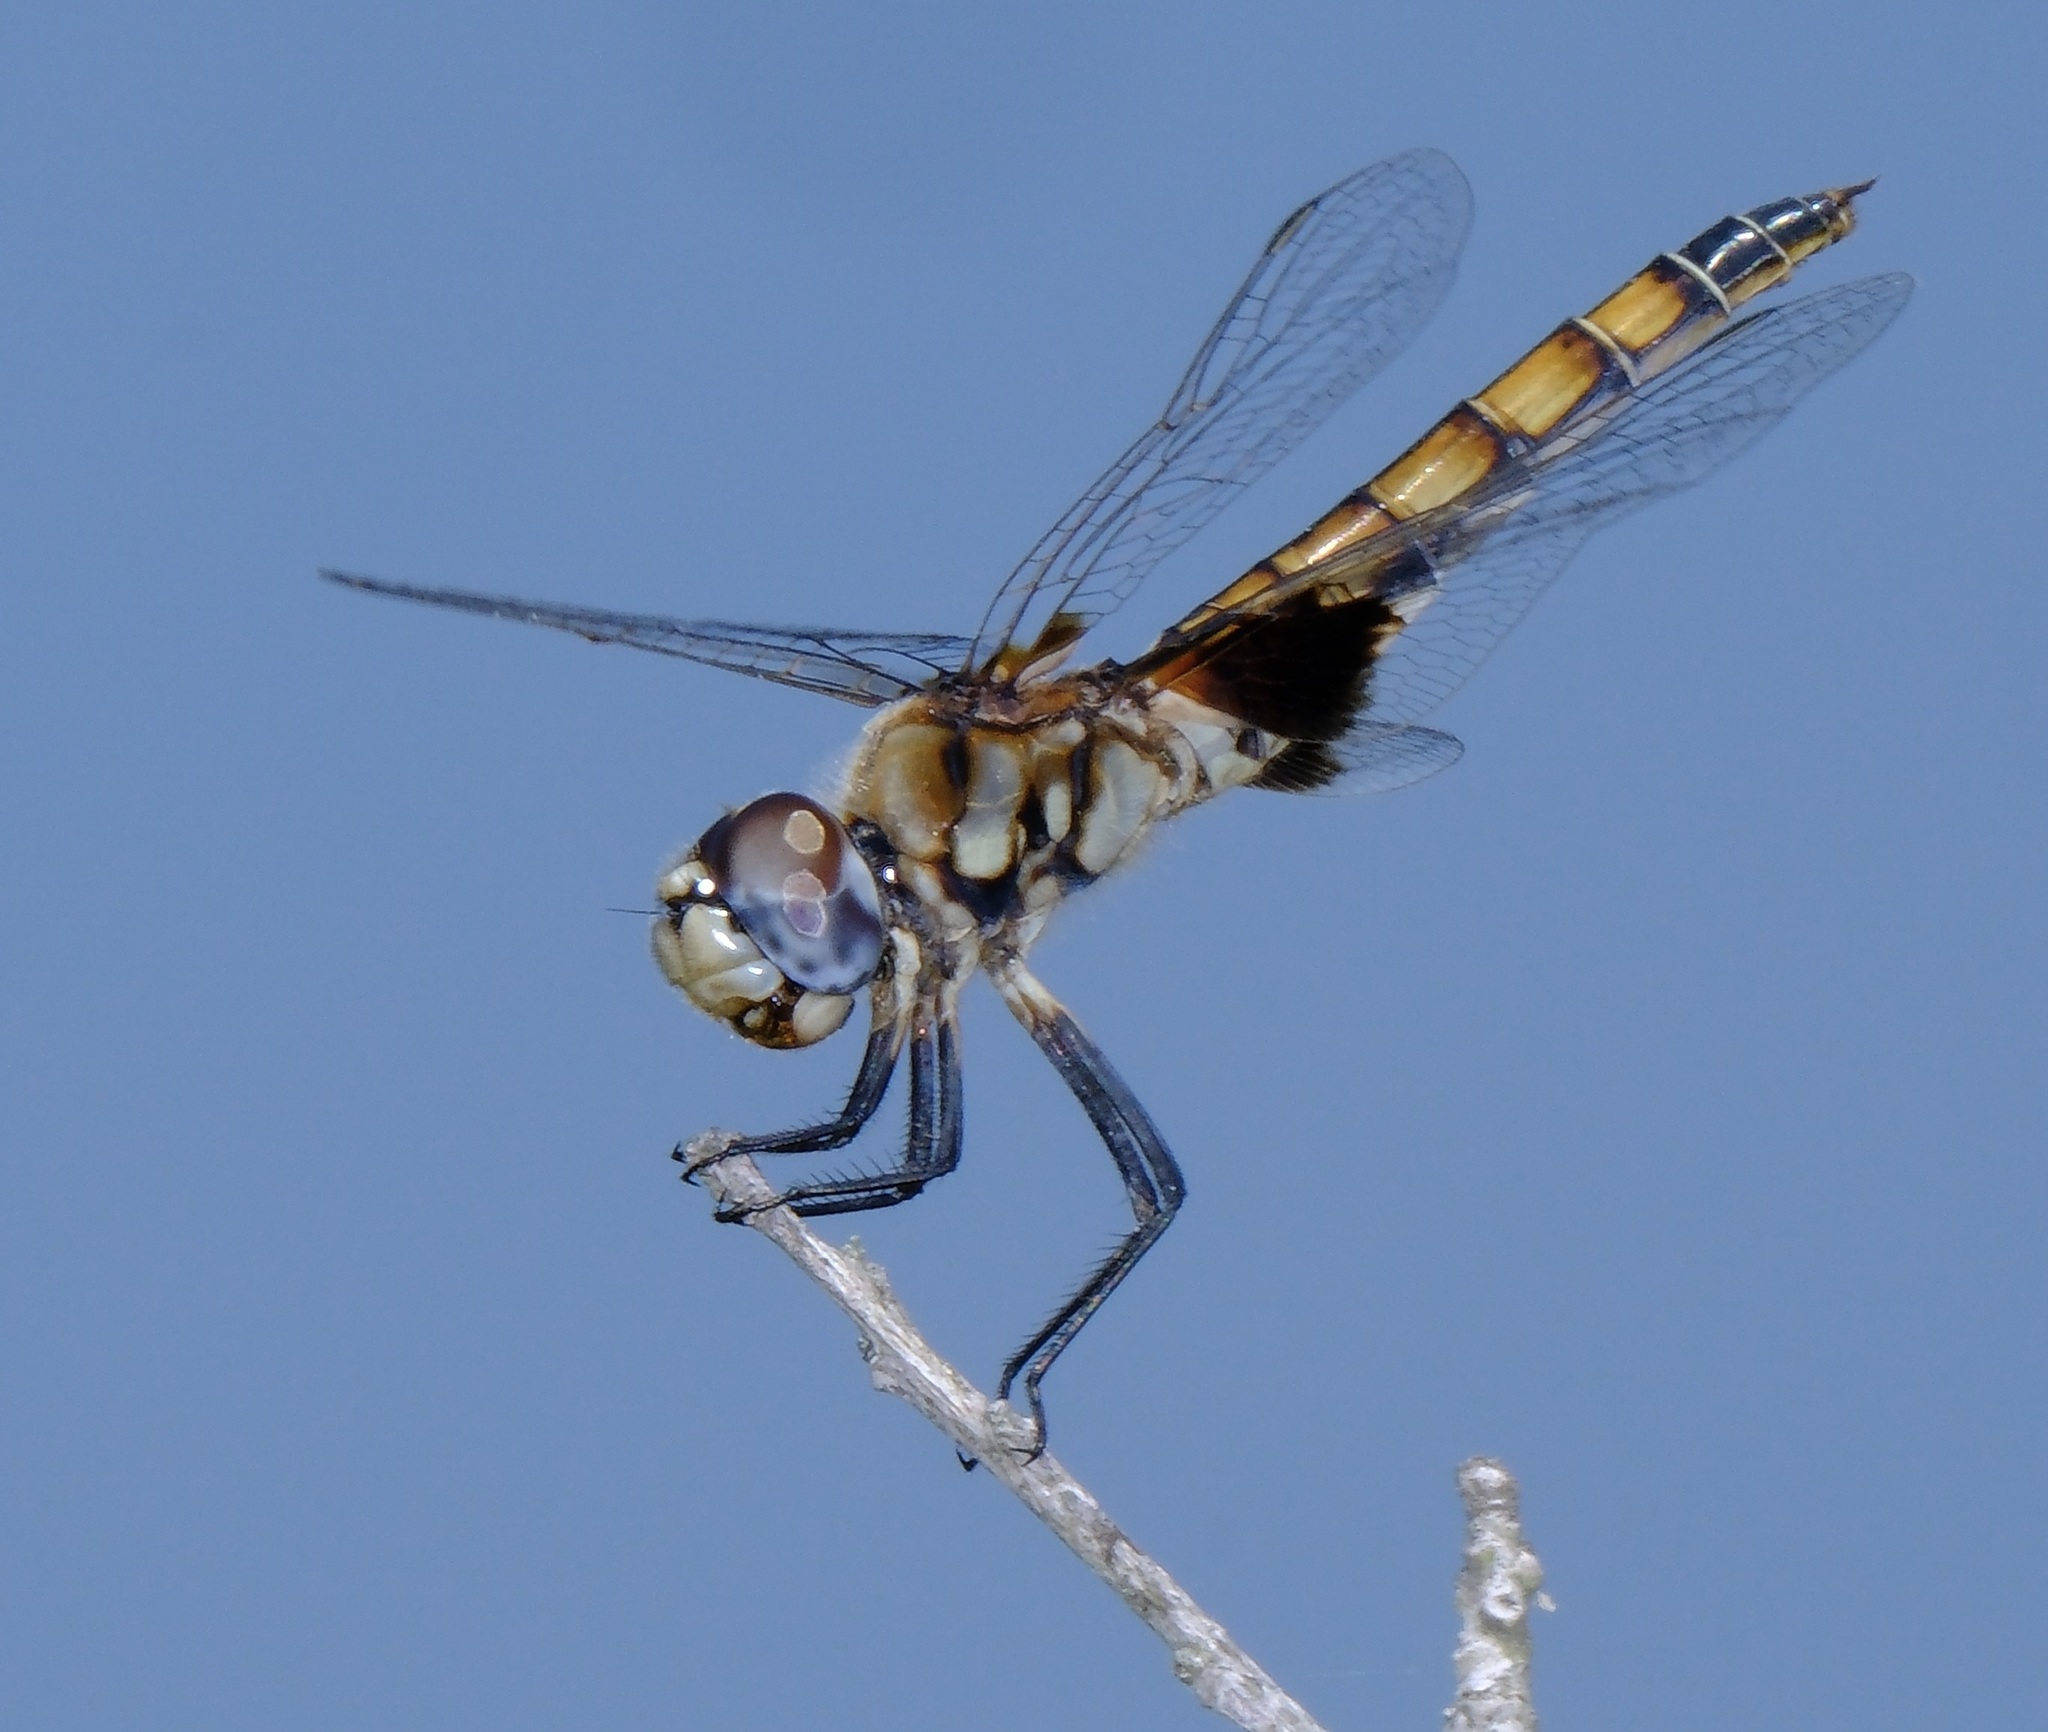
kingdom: Animalia
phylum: Arthropoda
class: Insecta
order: Odonata
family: Libellulidae
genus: Macrodiplax
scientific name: Macrodiplax balteata
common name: Marl pennant
